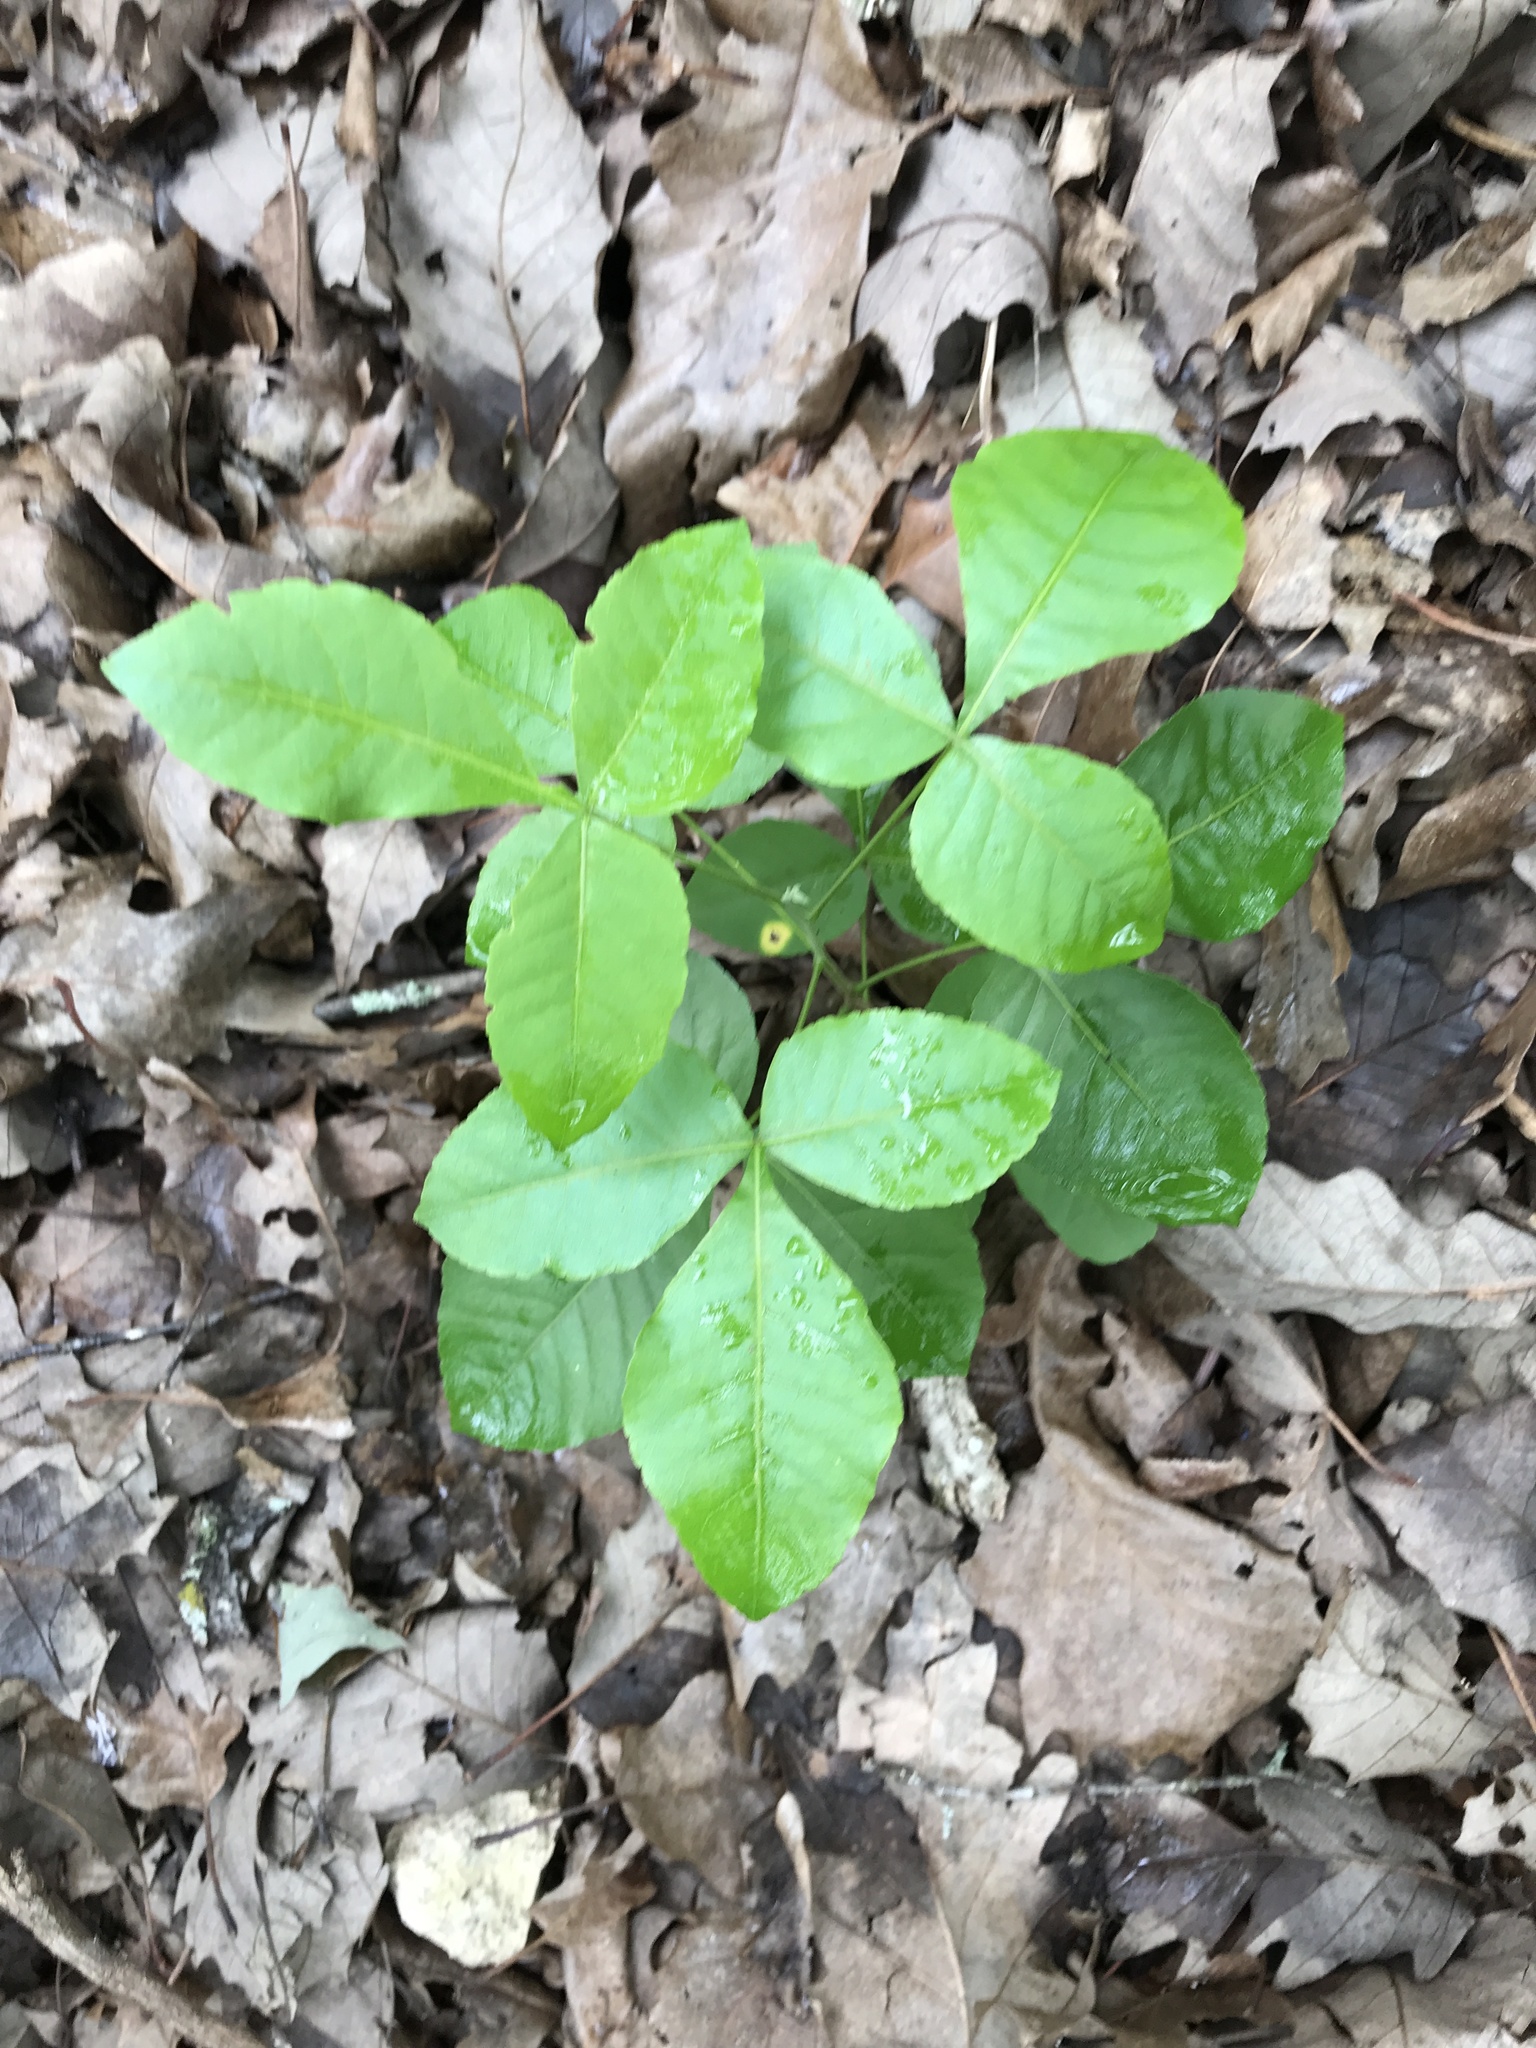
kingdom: Plantae
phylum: Tracheophyta
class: Magnoliopsida
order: Sapindales
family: Rutaceae
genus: Ptelea
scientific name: Ptelea trifoliata
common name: Common hop-tree
